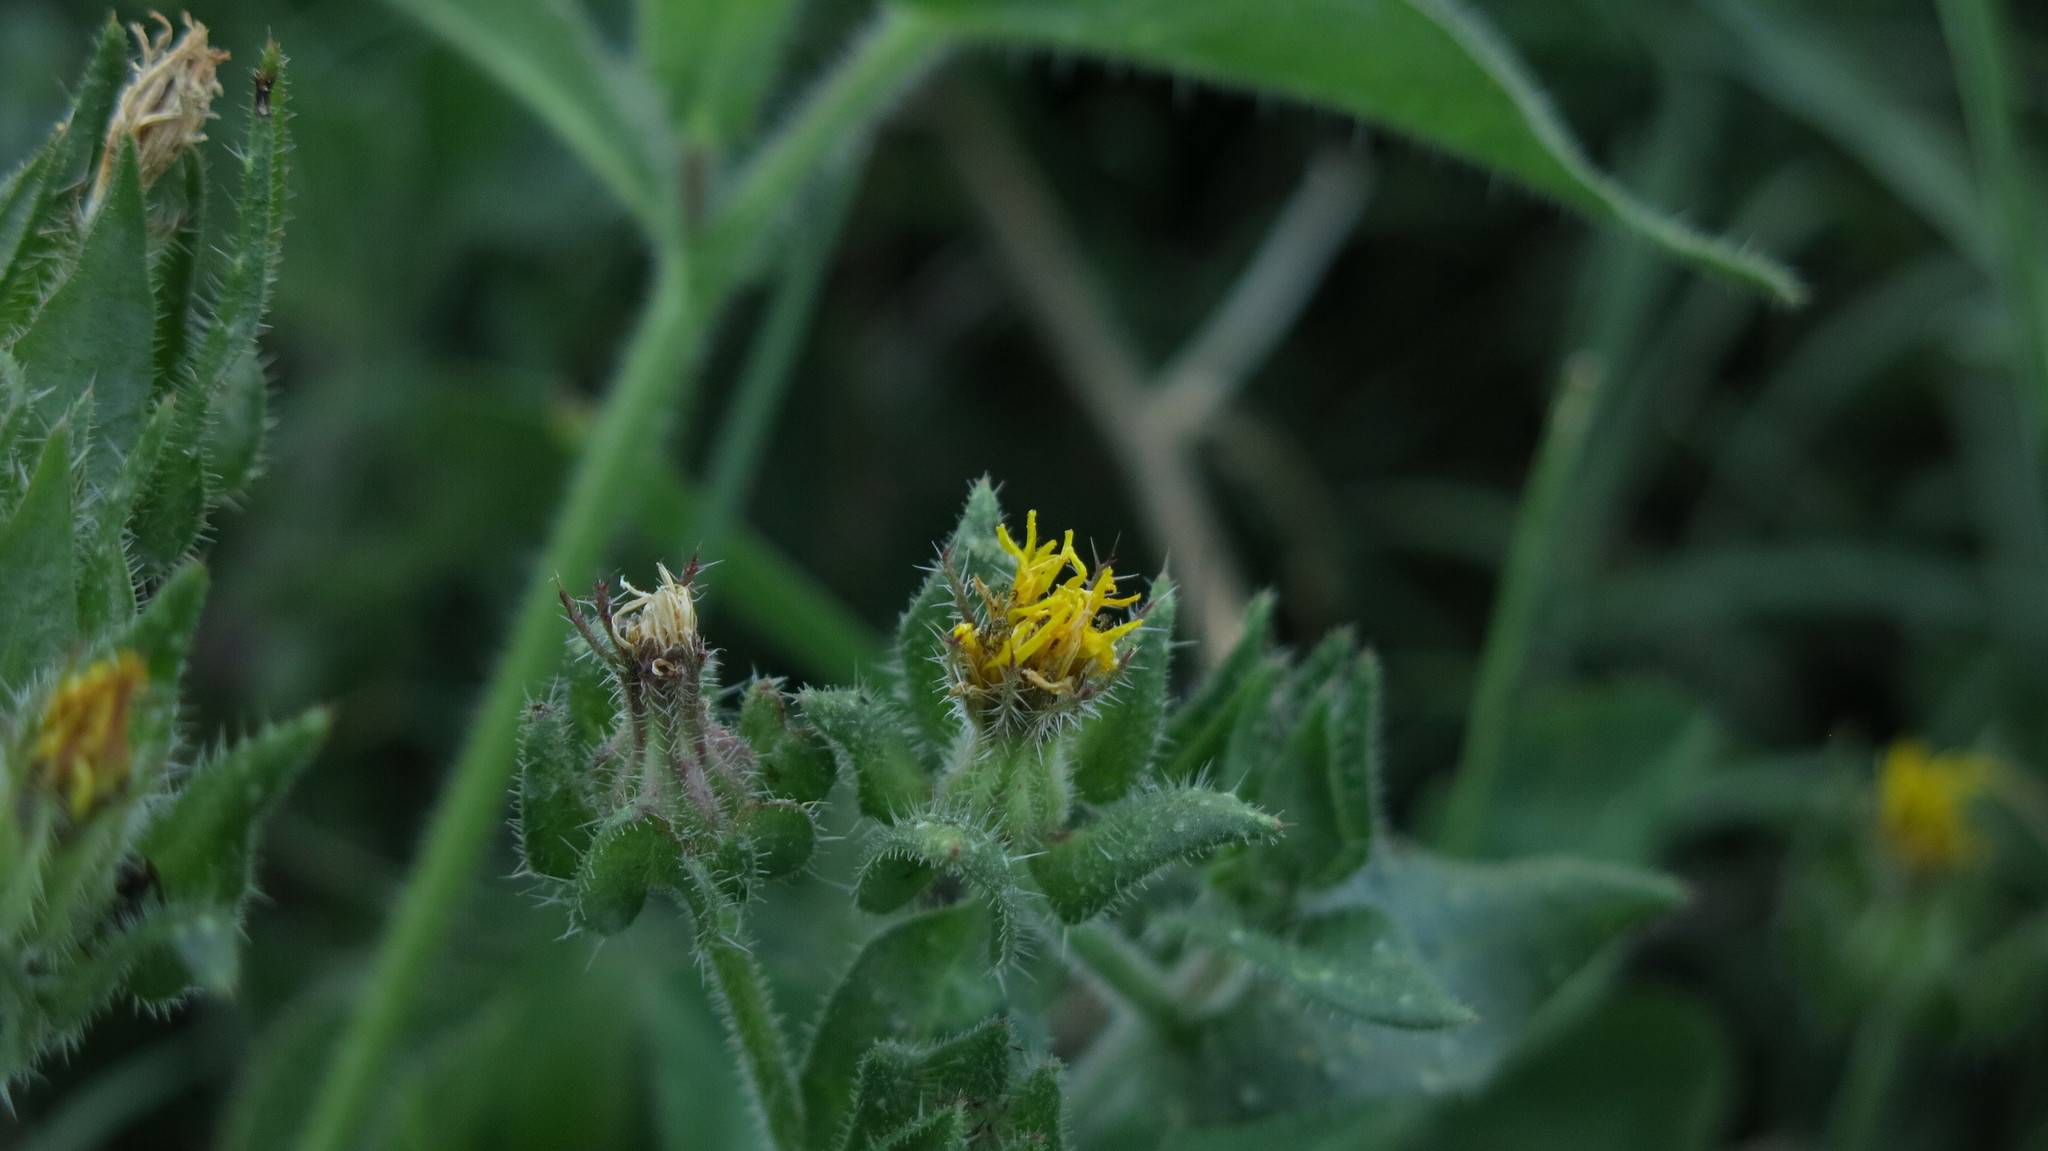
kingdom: Plantae
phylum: Tracheophyta
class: Magnoliopsida
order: Asterales
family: Asteraceae
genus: Helminthotheca
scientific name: Helminthotheca echioides
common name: Ox-tongue
